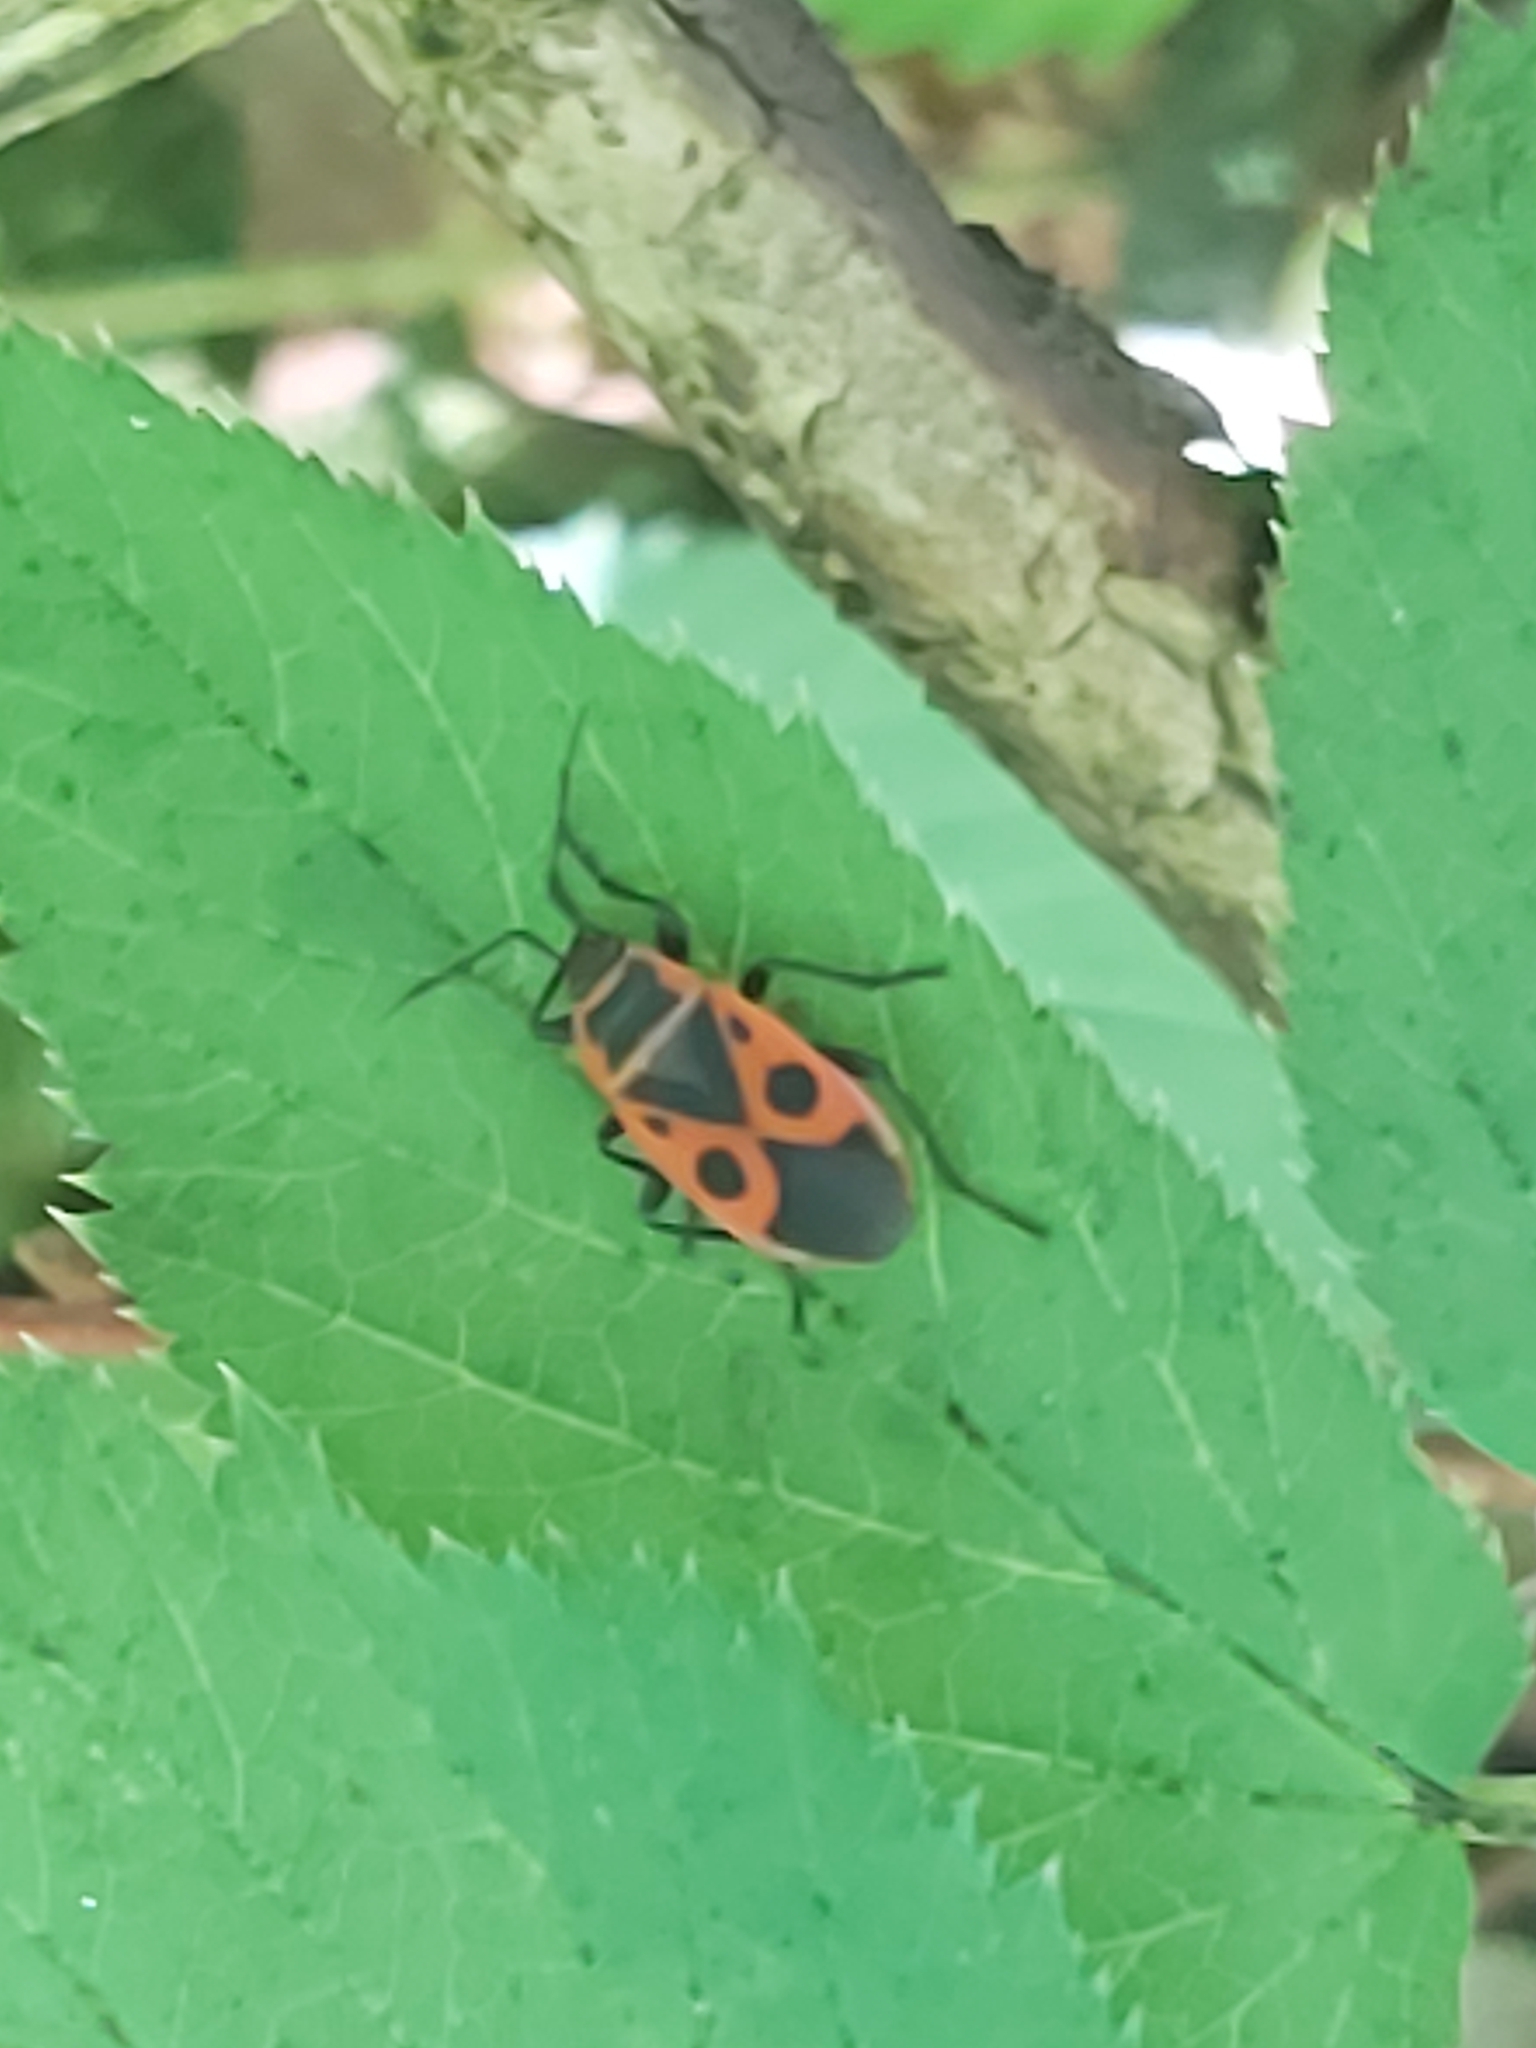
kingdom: Animalia
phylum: Arthropoda
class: Insecta
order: Hemiptera
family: Pyrrhocoridae
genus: Pyrrhocoris
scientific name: Pyrrhocoris apterus
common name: Firebug
